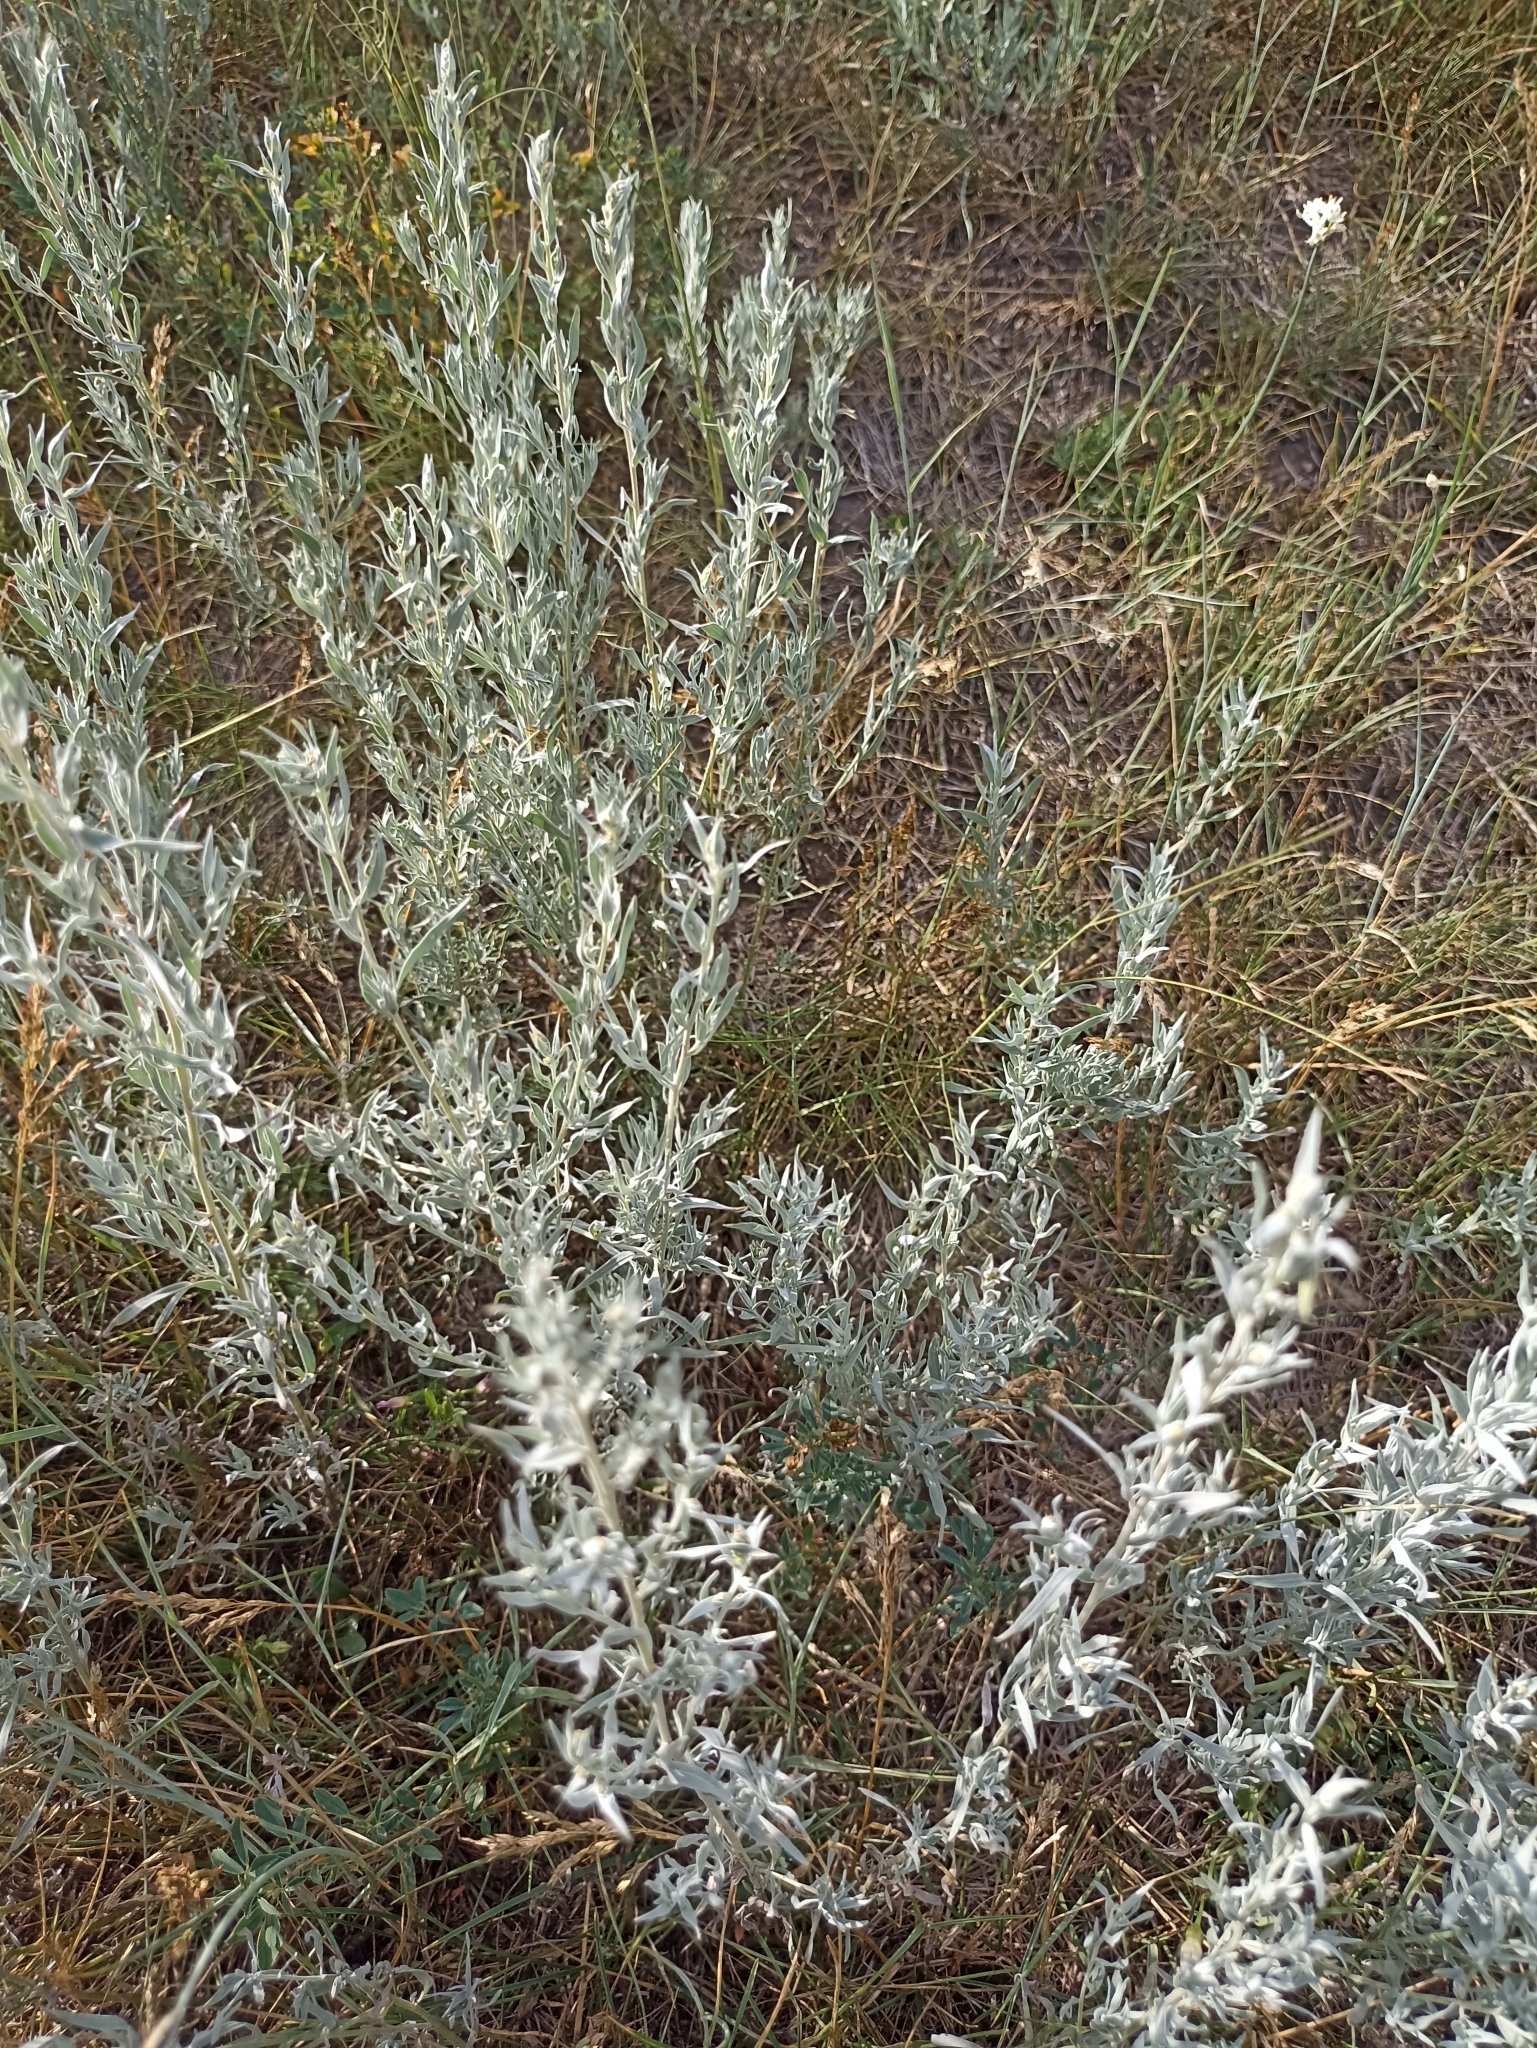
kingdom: Plantae
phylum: Tracheophyta
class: Magnoliopsida
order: Asterales
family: Asteraceae
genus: Artemisia
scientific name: Artemisia glauca
